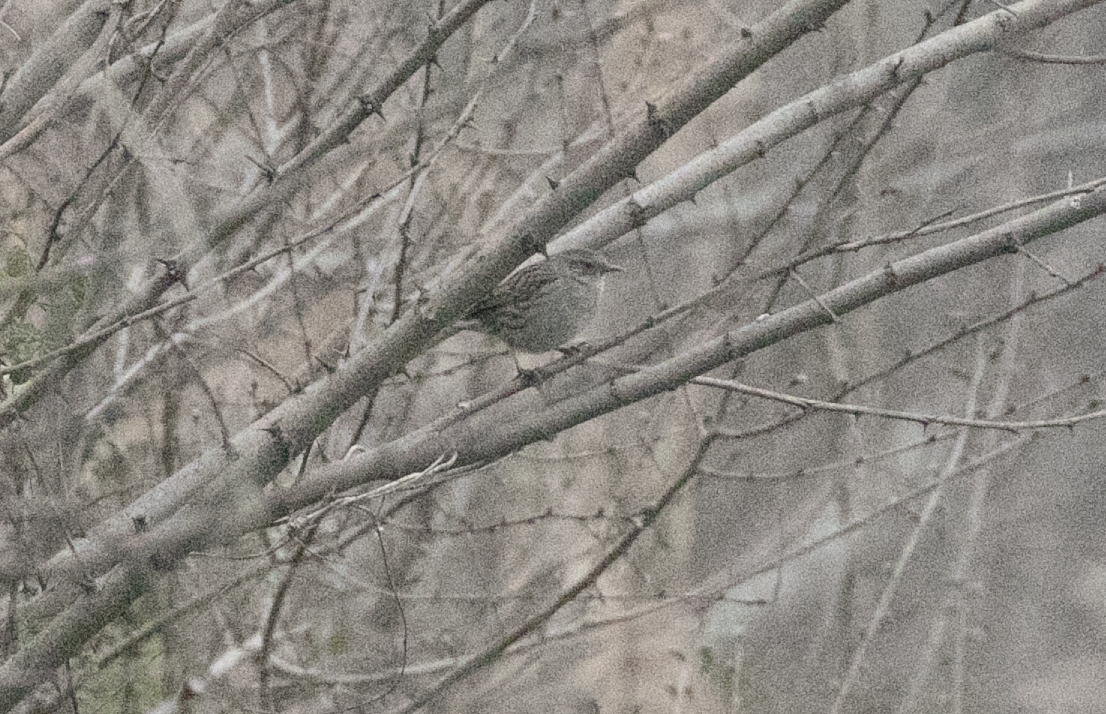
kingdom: Animalia
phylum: Chordata
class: Aves
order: Passeriformes
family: Prunellidae
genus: Prunella
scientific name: Prunella modularis
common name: Dunnock
